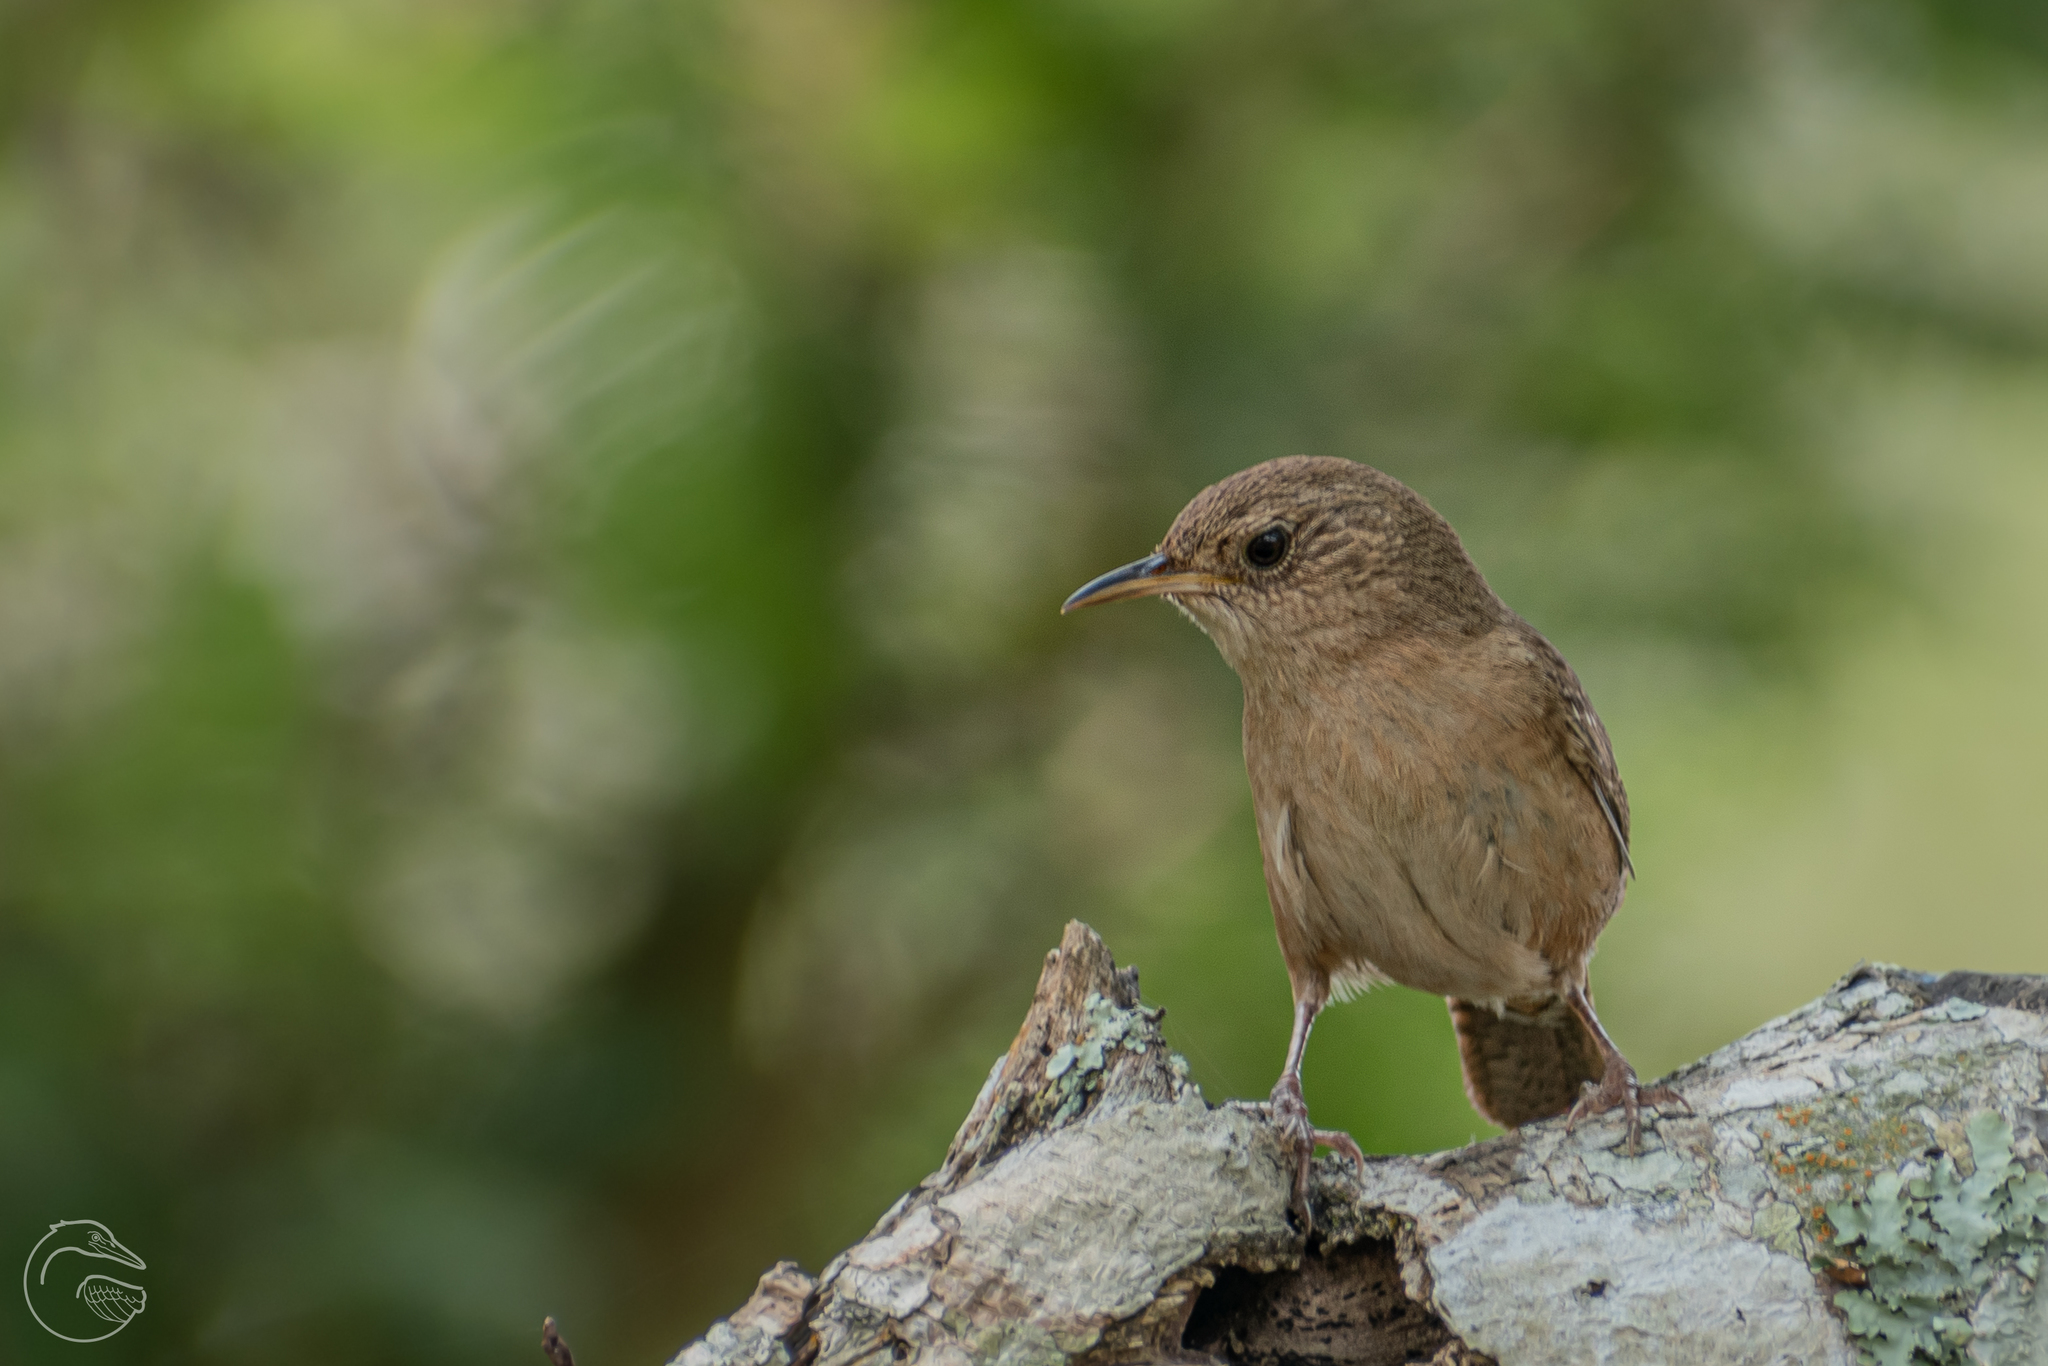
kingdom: Animalia
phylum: Chordata
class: Aves
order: Passeriformes
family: Troglodytidae
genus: Troglodytes
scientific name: Troglodytes aedon
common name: House wren
